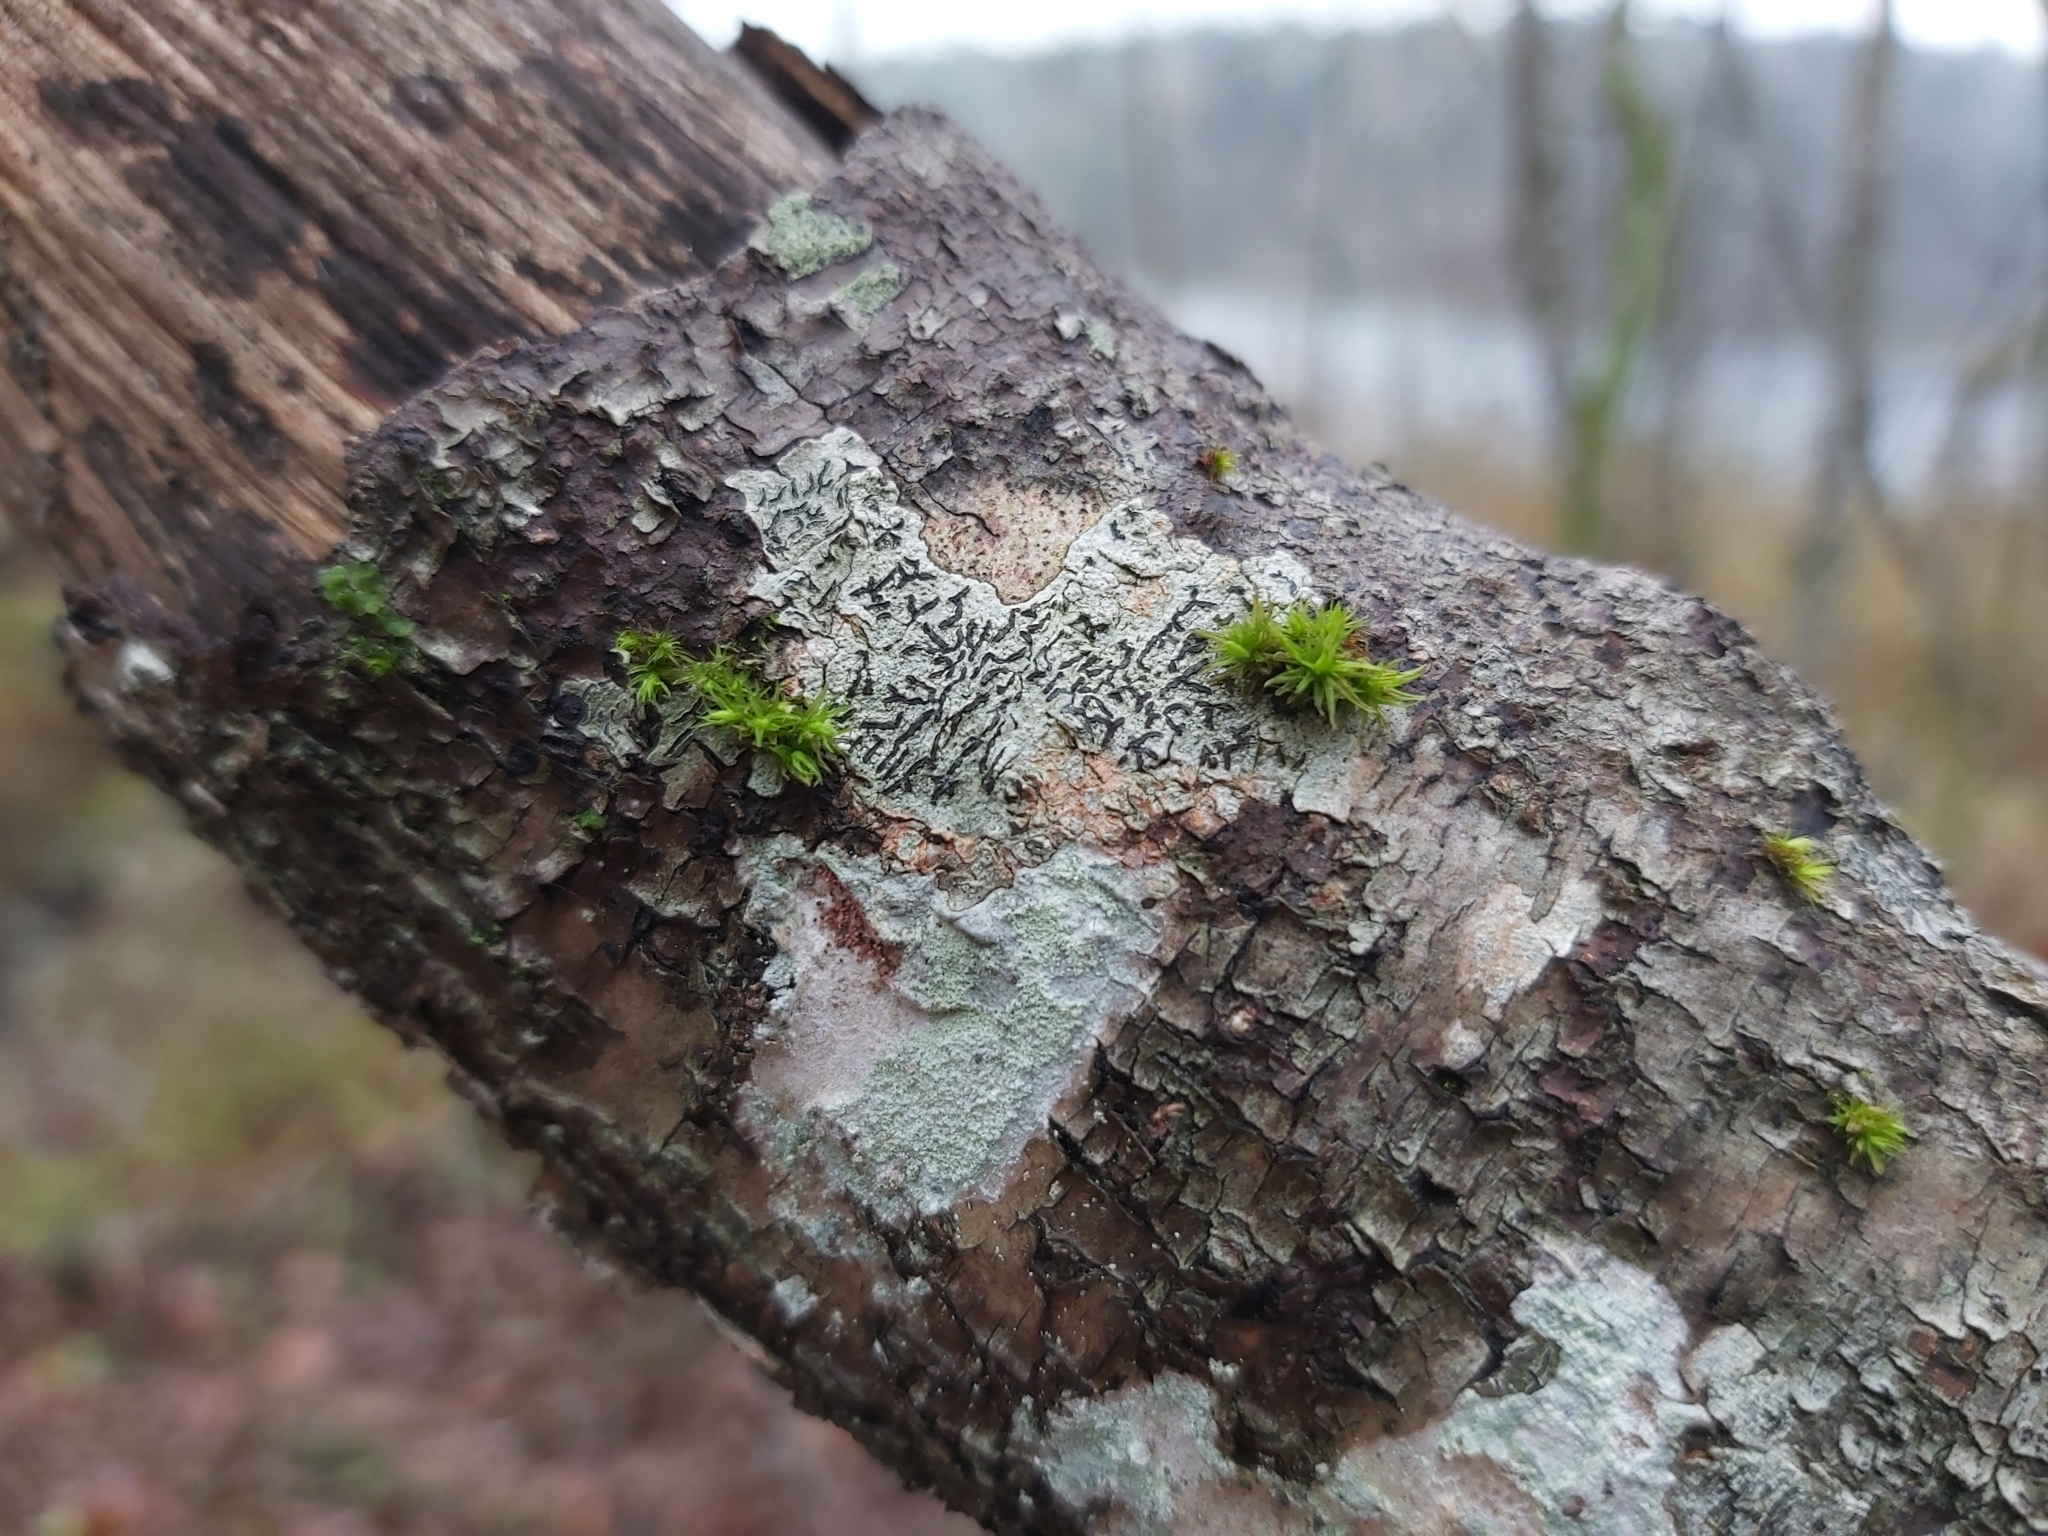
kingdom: Fungi
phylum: Ascomycota
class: Lecanoromycetes
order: Ostropales
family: Graphidaceae
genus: Graphis
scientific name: Graphis scripta
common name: Script lichen
